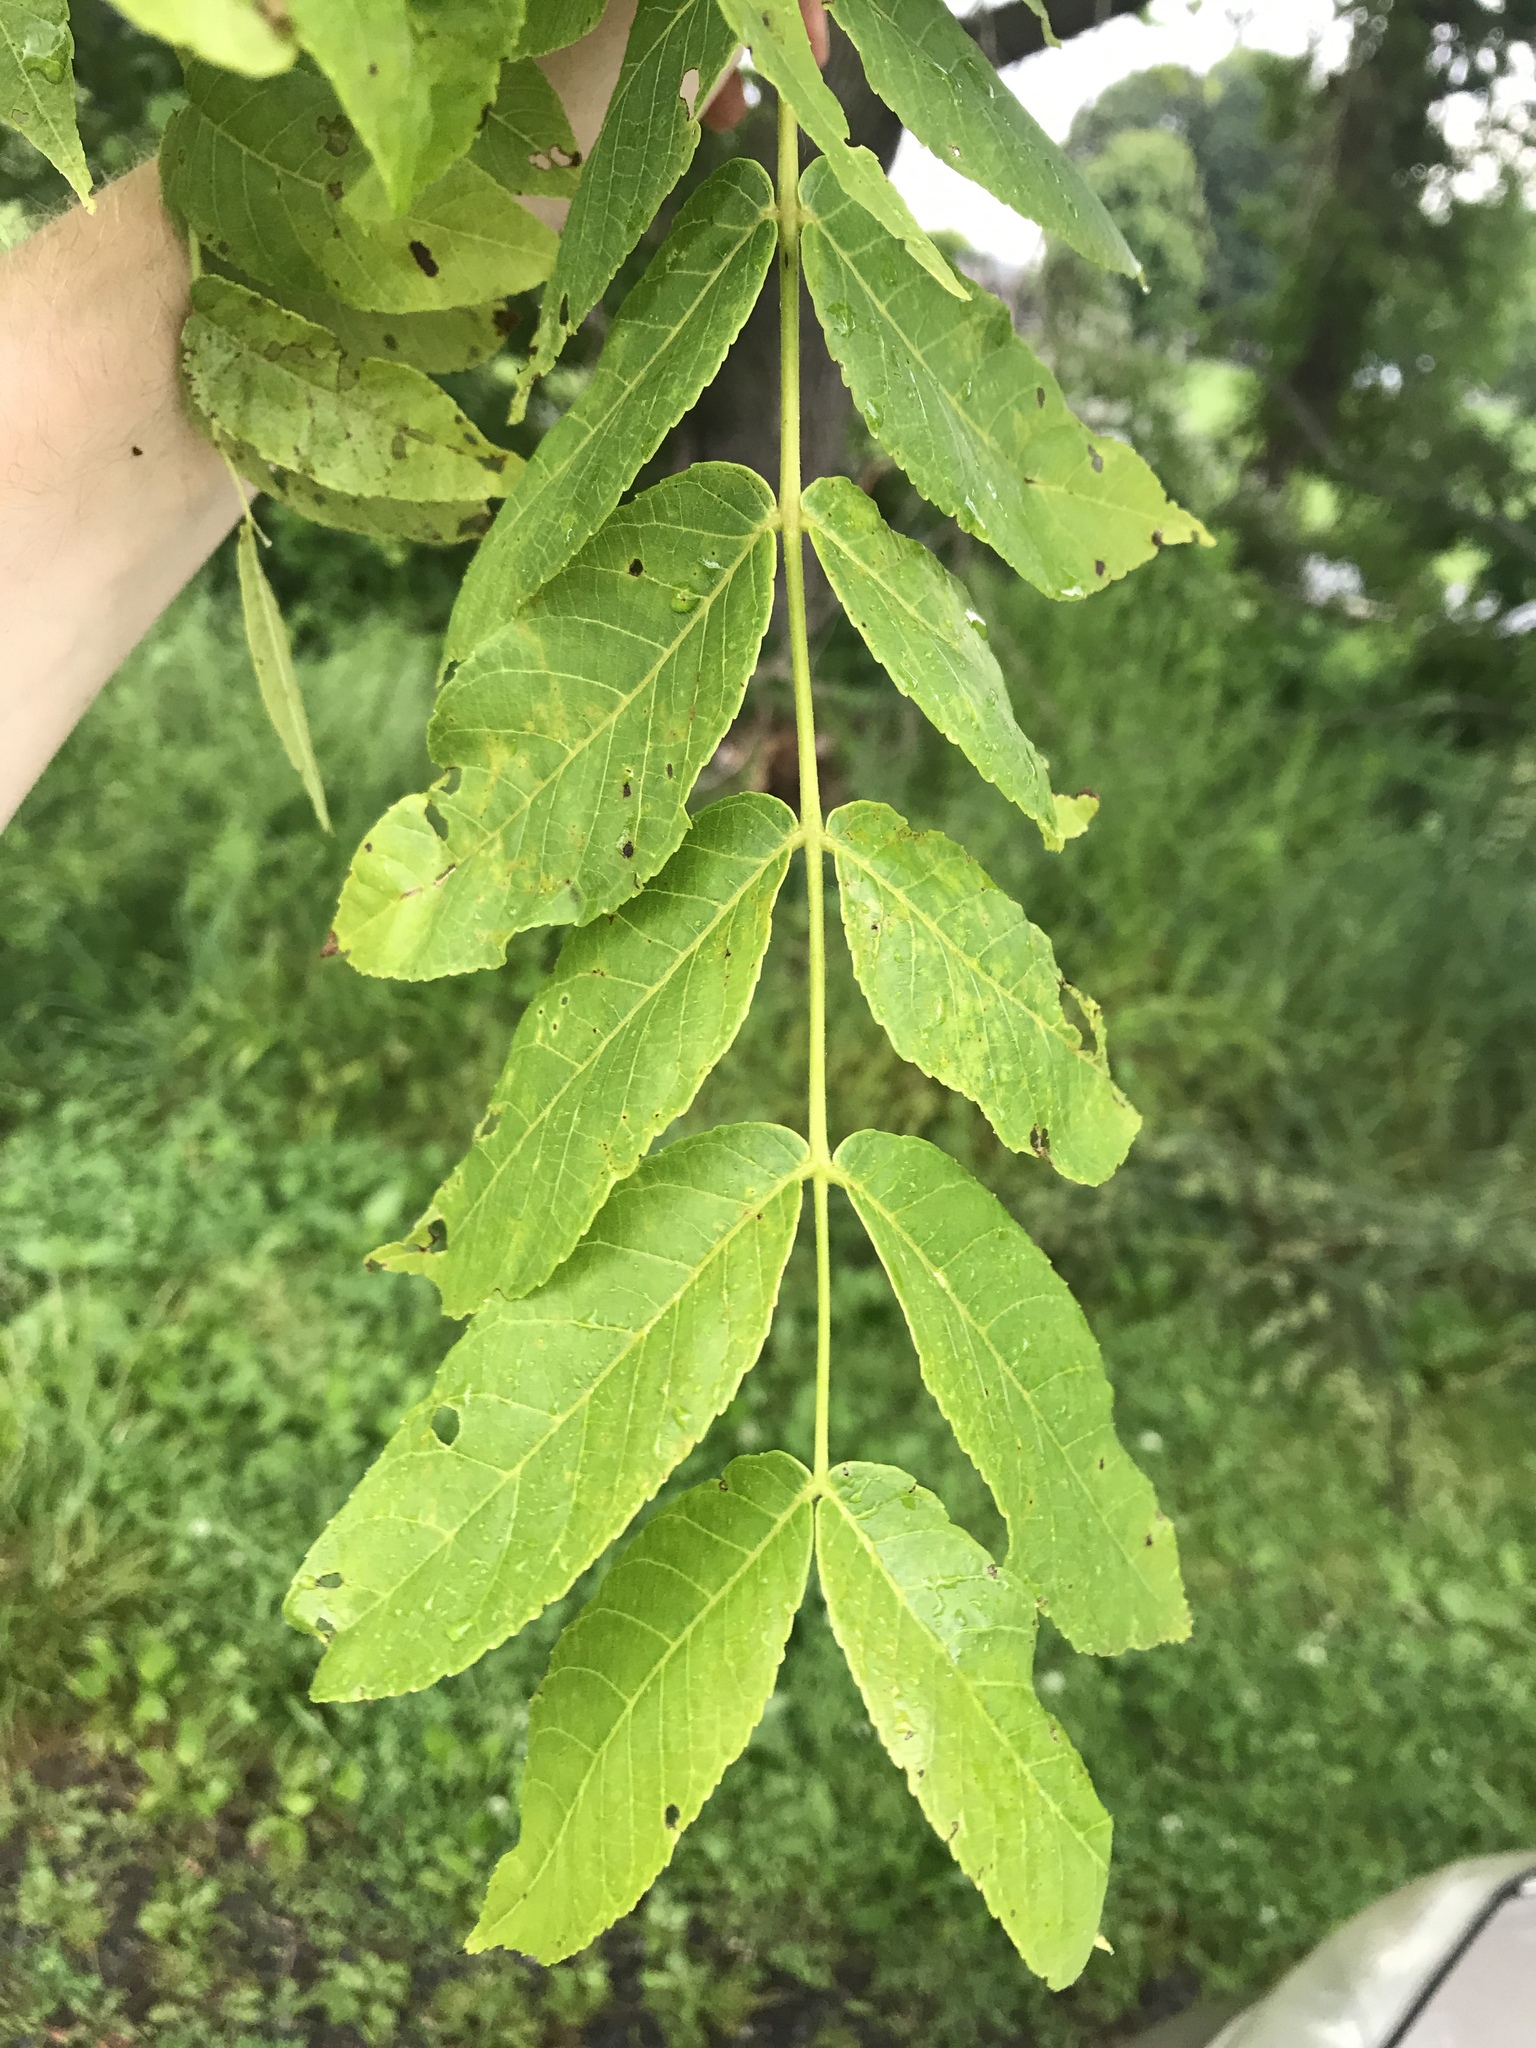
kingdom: Plantae
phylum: Tracheophyta
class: Magnoliopsida
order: Fagales
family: Juglandaceae
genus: Juglans
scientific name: Juglans nigra
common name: Black walnut
